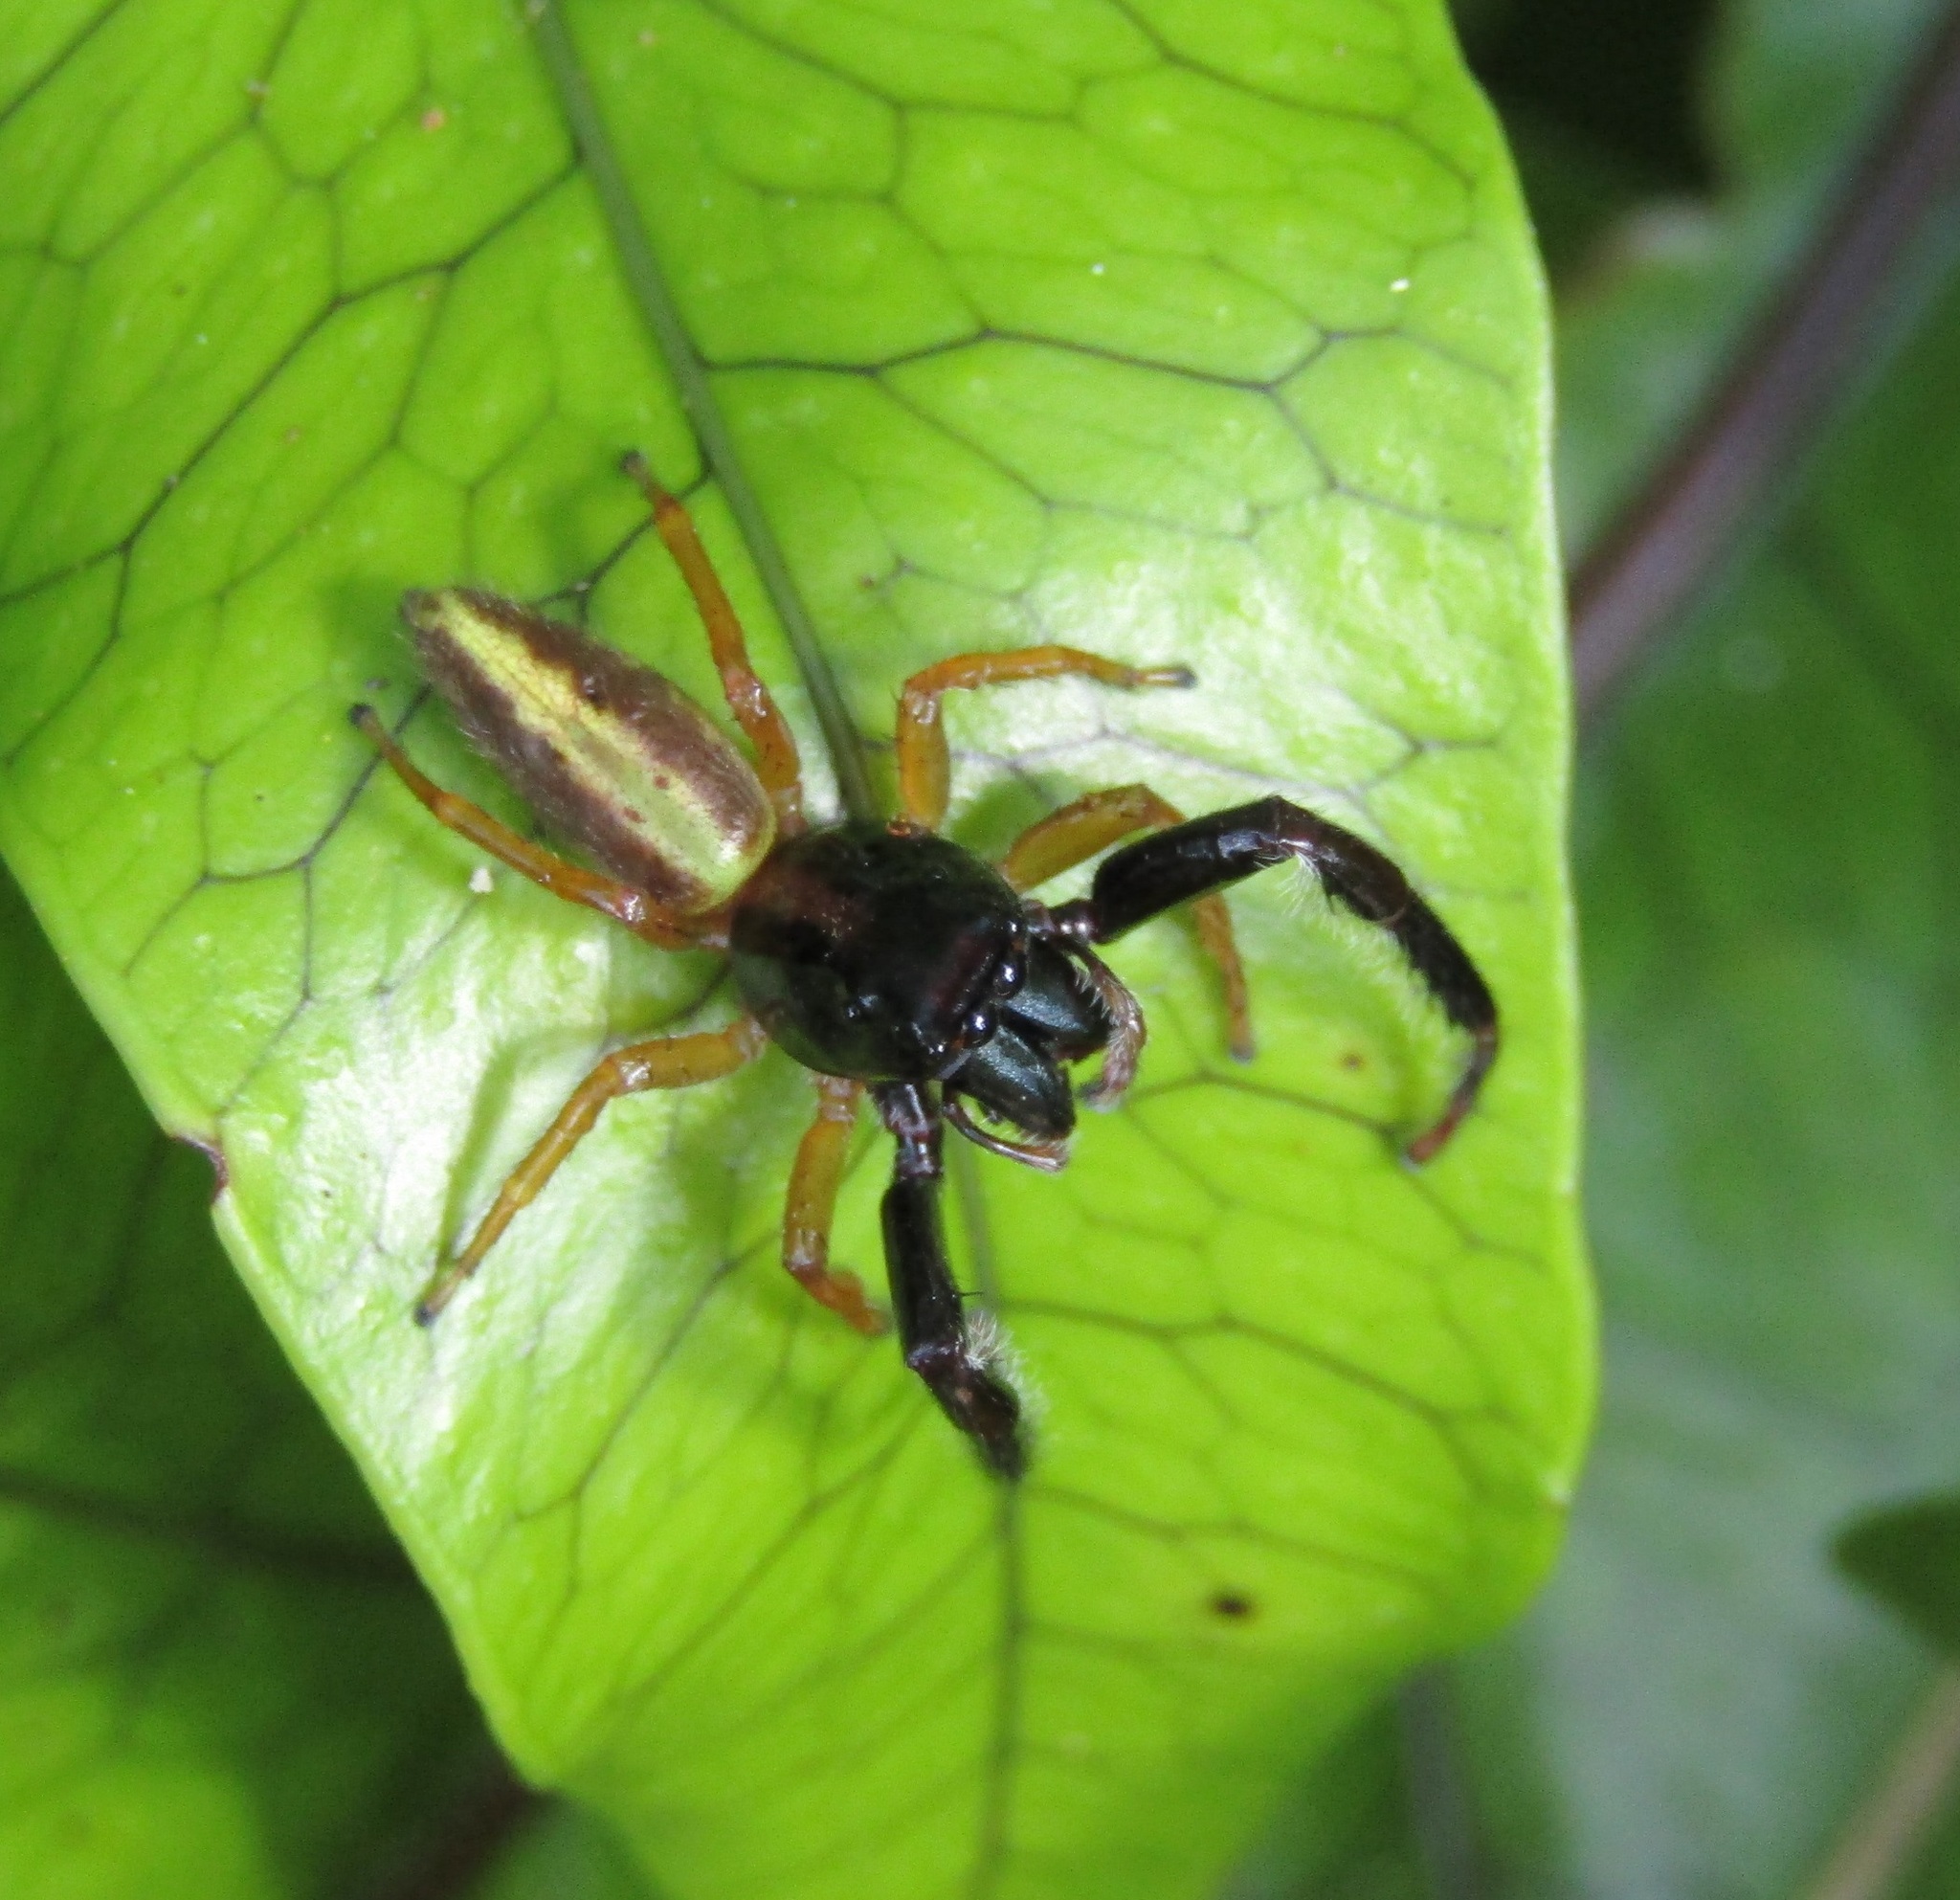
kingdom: Animalia
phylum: Arthropoda
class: Arachnida
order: Araneae
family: Salticidae
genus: Trite
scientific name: Trite planiceps
